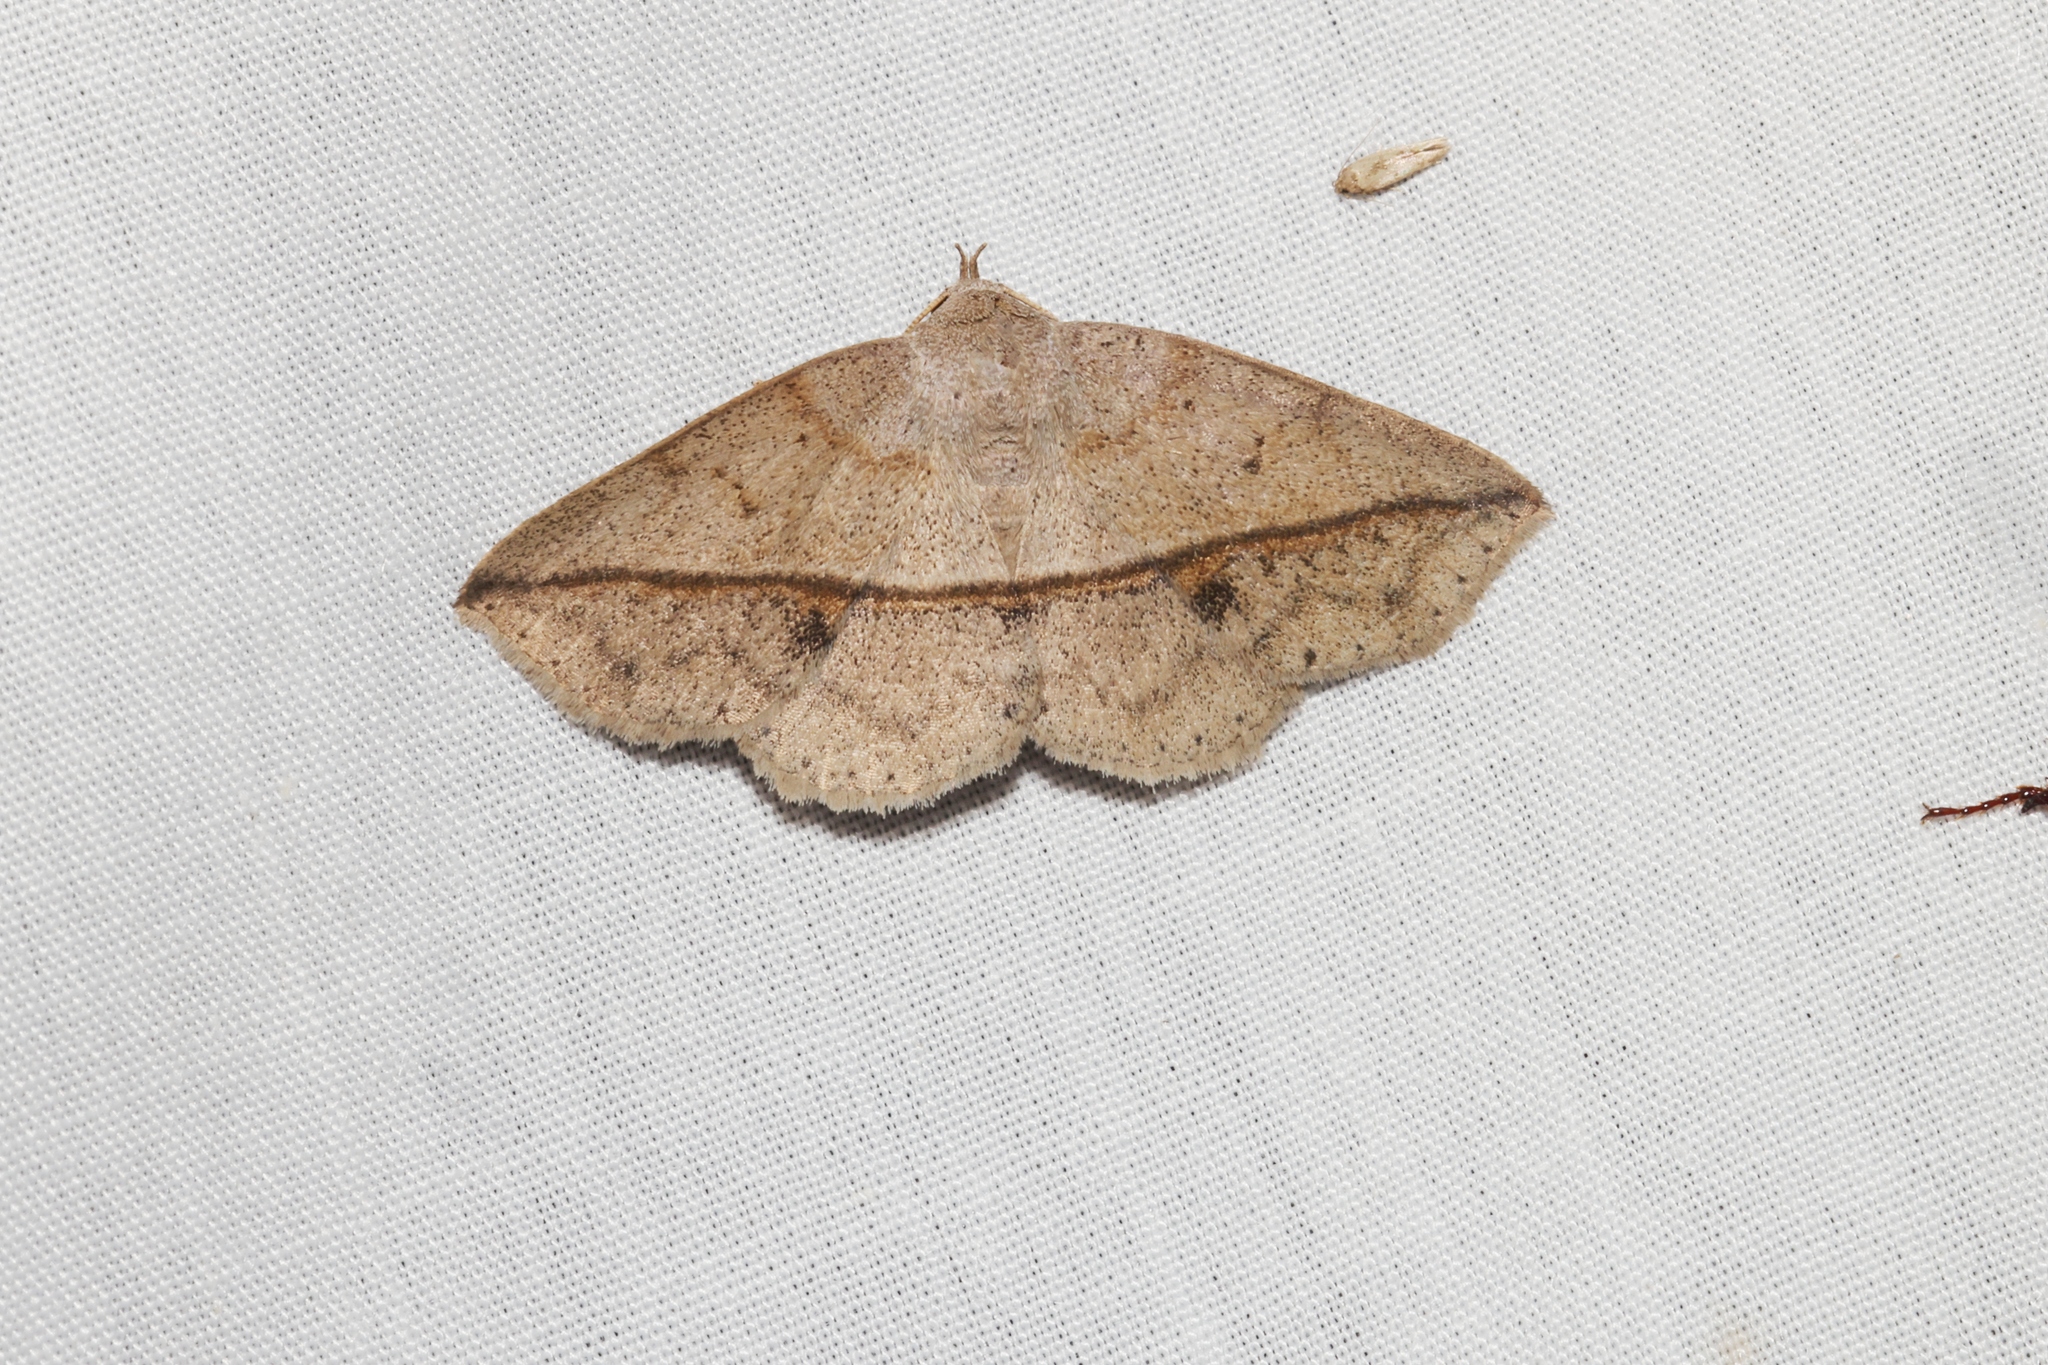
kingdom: Animalia
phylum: Arthropoda
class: Insecta
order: Lepidoptera
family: Erebidae
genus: Ugia
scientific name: Ugia
